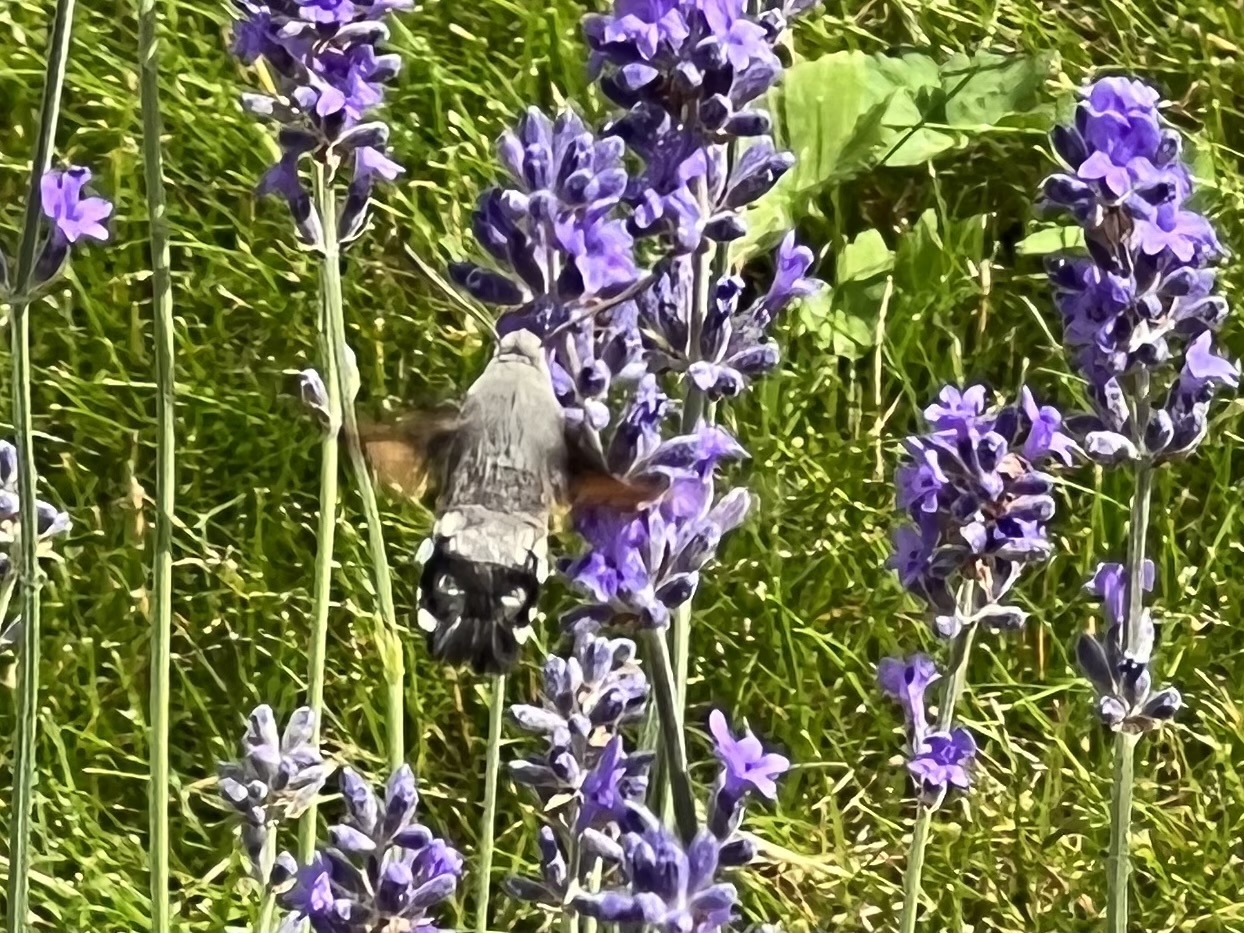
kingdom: Animalia
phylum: Arthropoda
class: Insecta
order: Lepidoptera
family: Sphingidae
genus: Macroglossum
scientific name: Macroglossum stellatarum
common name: Humming-bird hawk-moth
